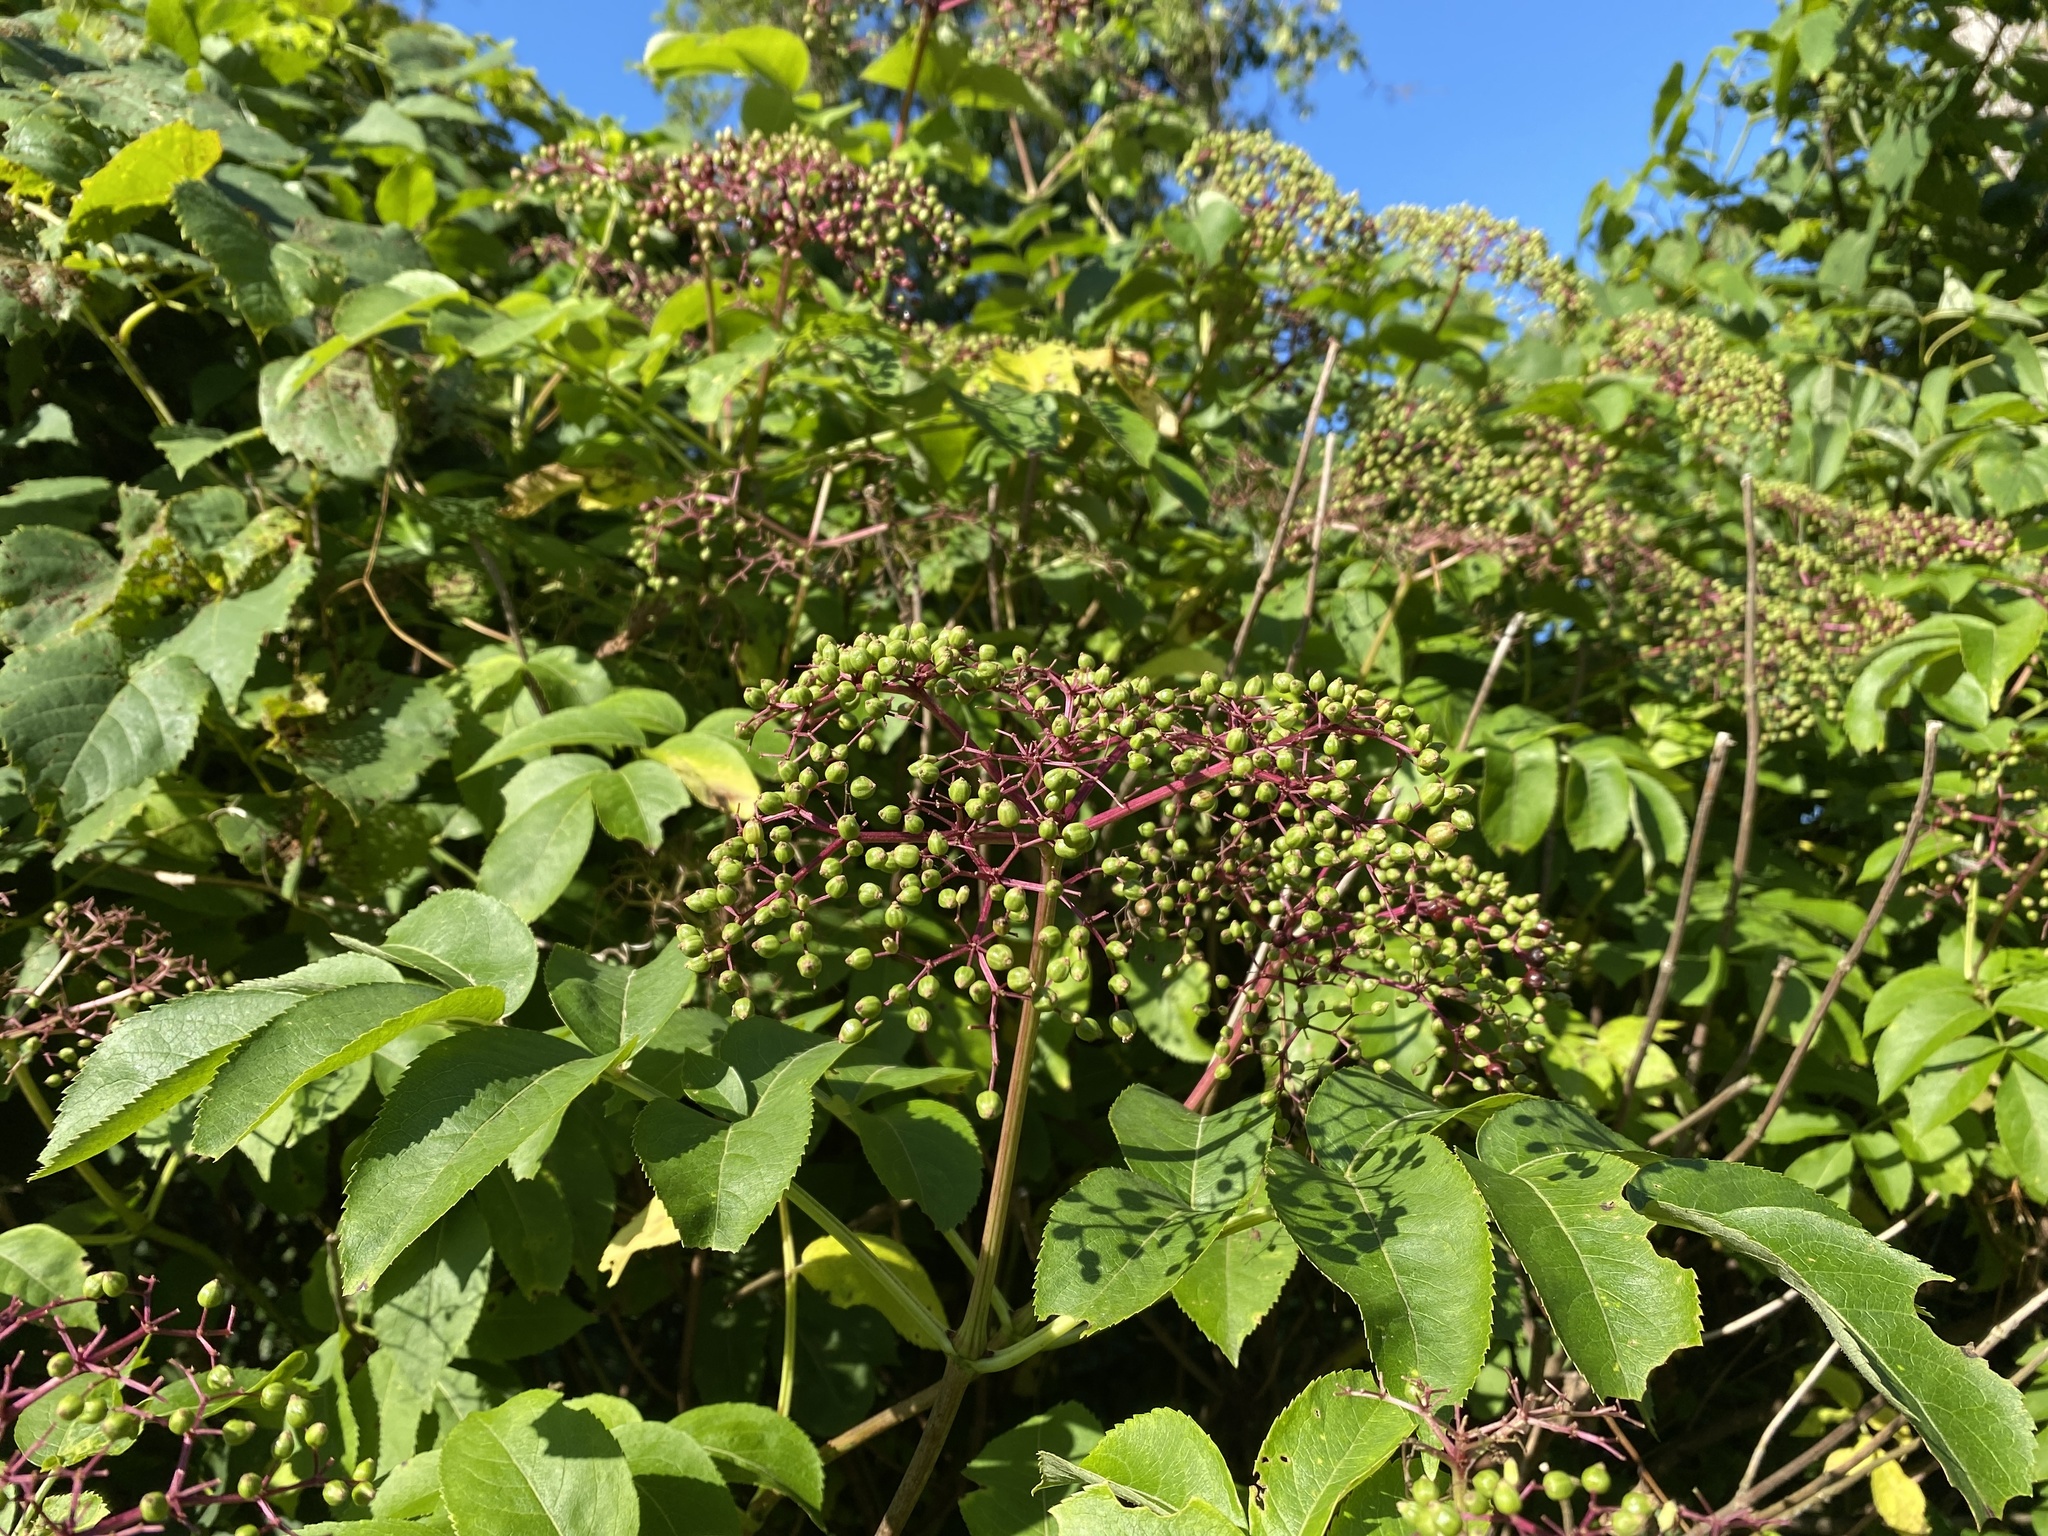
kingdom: Plantae
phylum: Tracheophyta
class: Magnoliopsida
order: Dipsacales
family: Viburnaceae
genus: Sambucus
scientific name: Sambucus canadensis
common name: American elder
